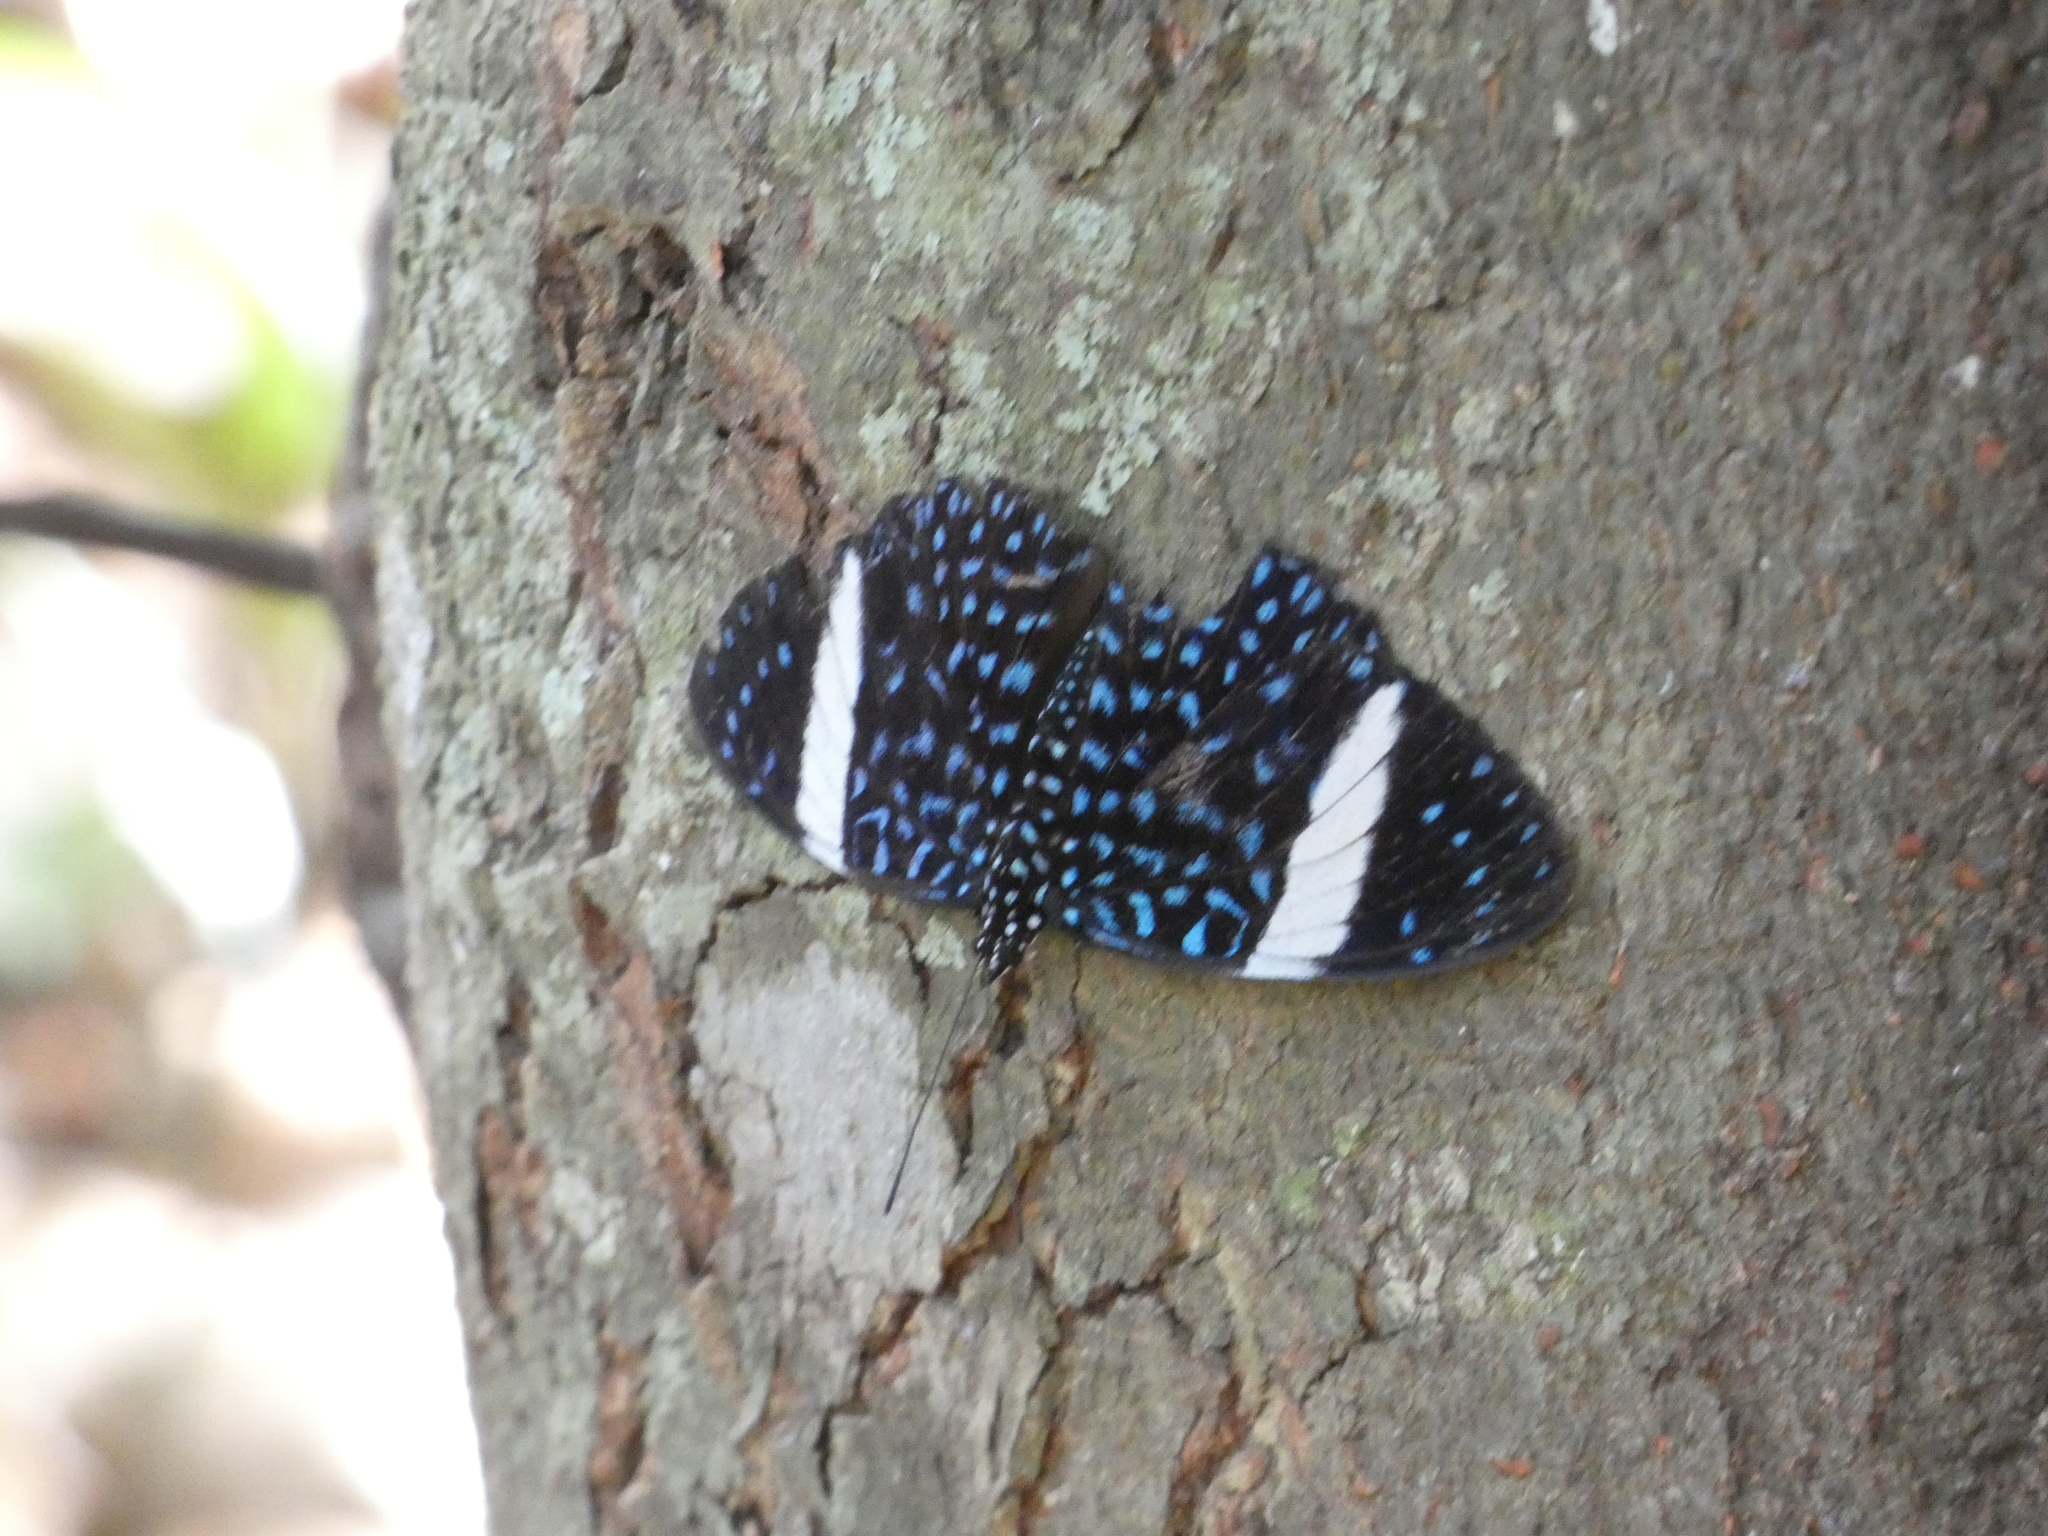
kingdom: Animalia
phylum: Arthropoda
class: Insecta
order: Lepidoptera
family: Nymphalidae
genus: Hamadryas
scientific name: Hamadryas laodamia
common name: Starry night cracker
